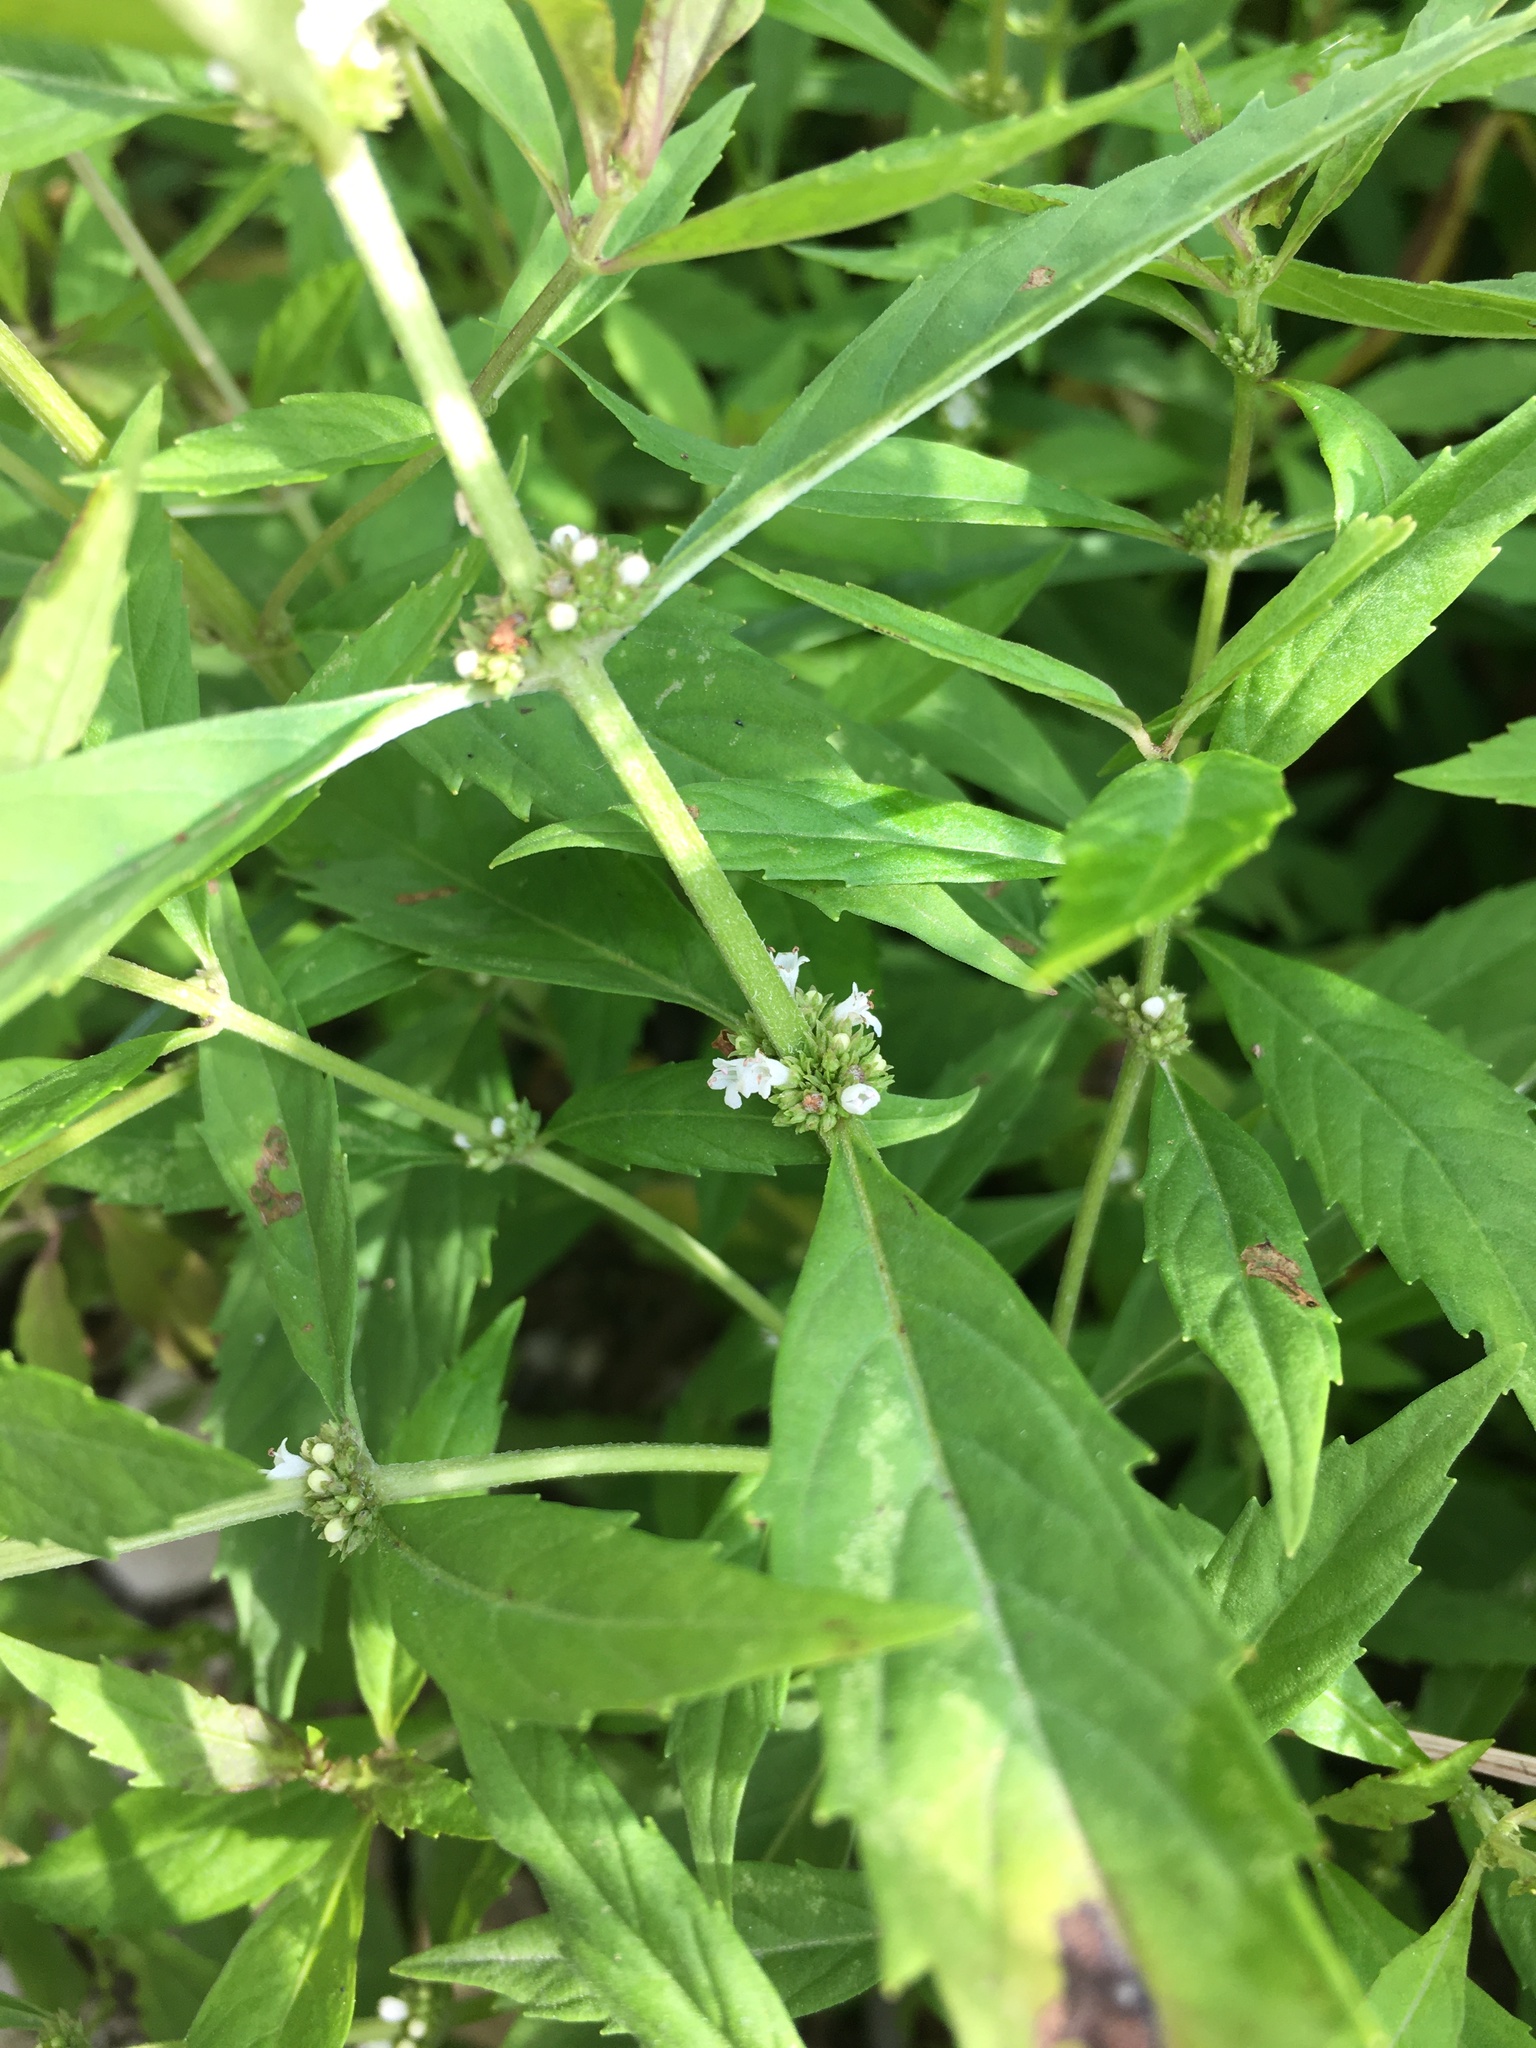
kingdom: Plantae
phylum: Tracheophyta
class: Magnoliopsida
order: Lamiales
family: Lamiaceae
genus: Lycopus
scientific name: Lycopus uniflorus
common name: Northern bugleweed
